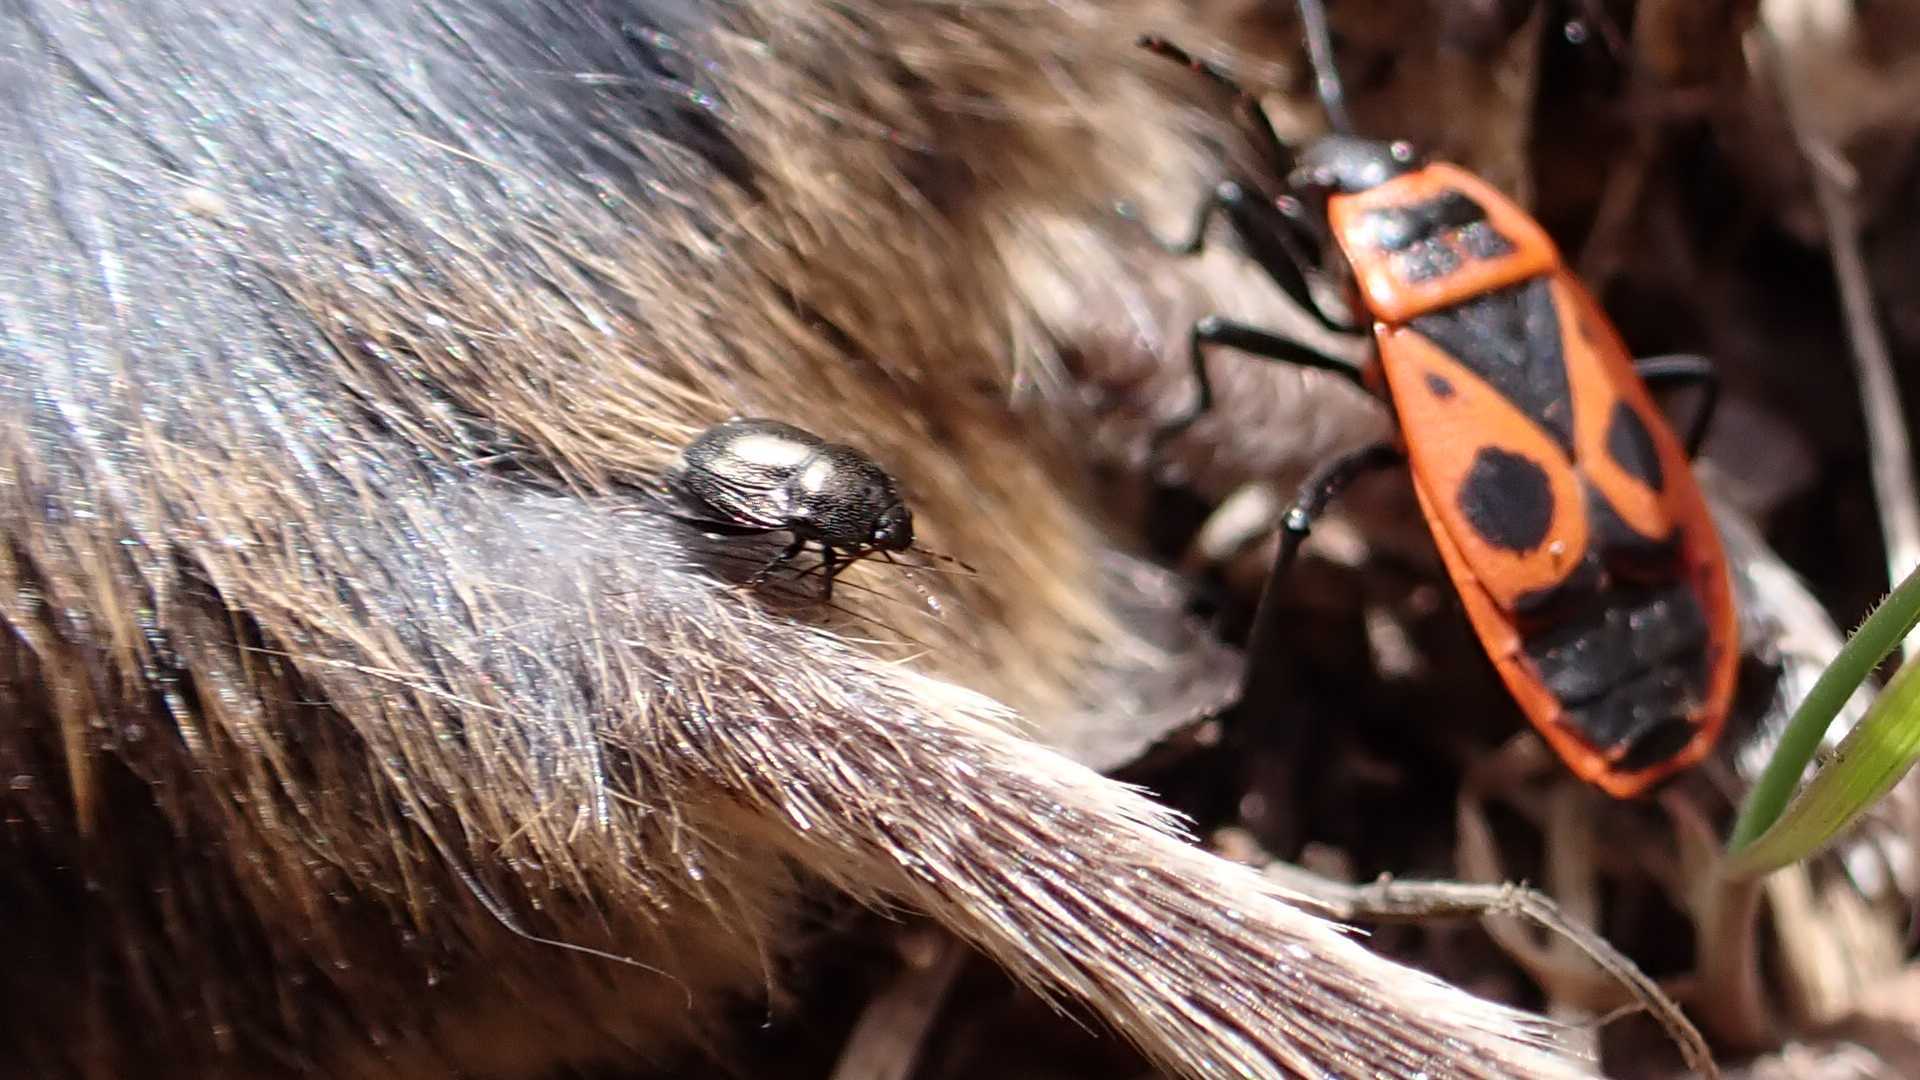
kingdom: Animalia
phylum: Arthropoda
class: Insecta
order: Hemiptera
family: Thyreocoridae
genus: Thyreocoris
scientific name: Thyreocoris scarabaeoides
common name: Negro bug
